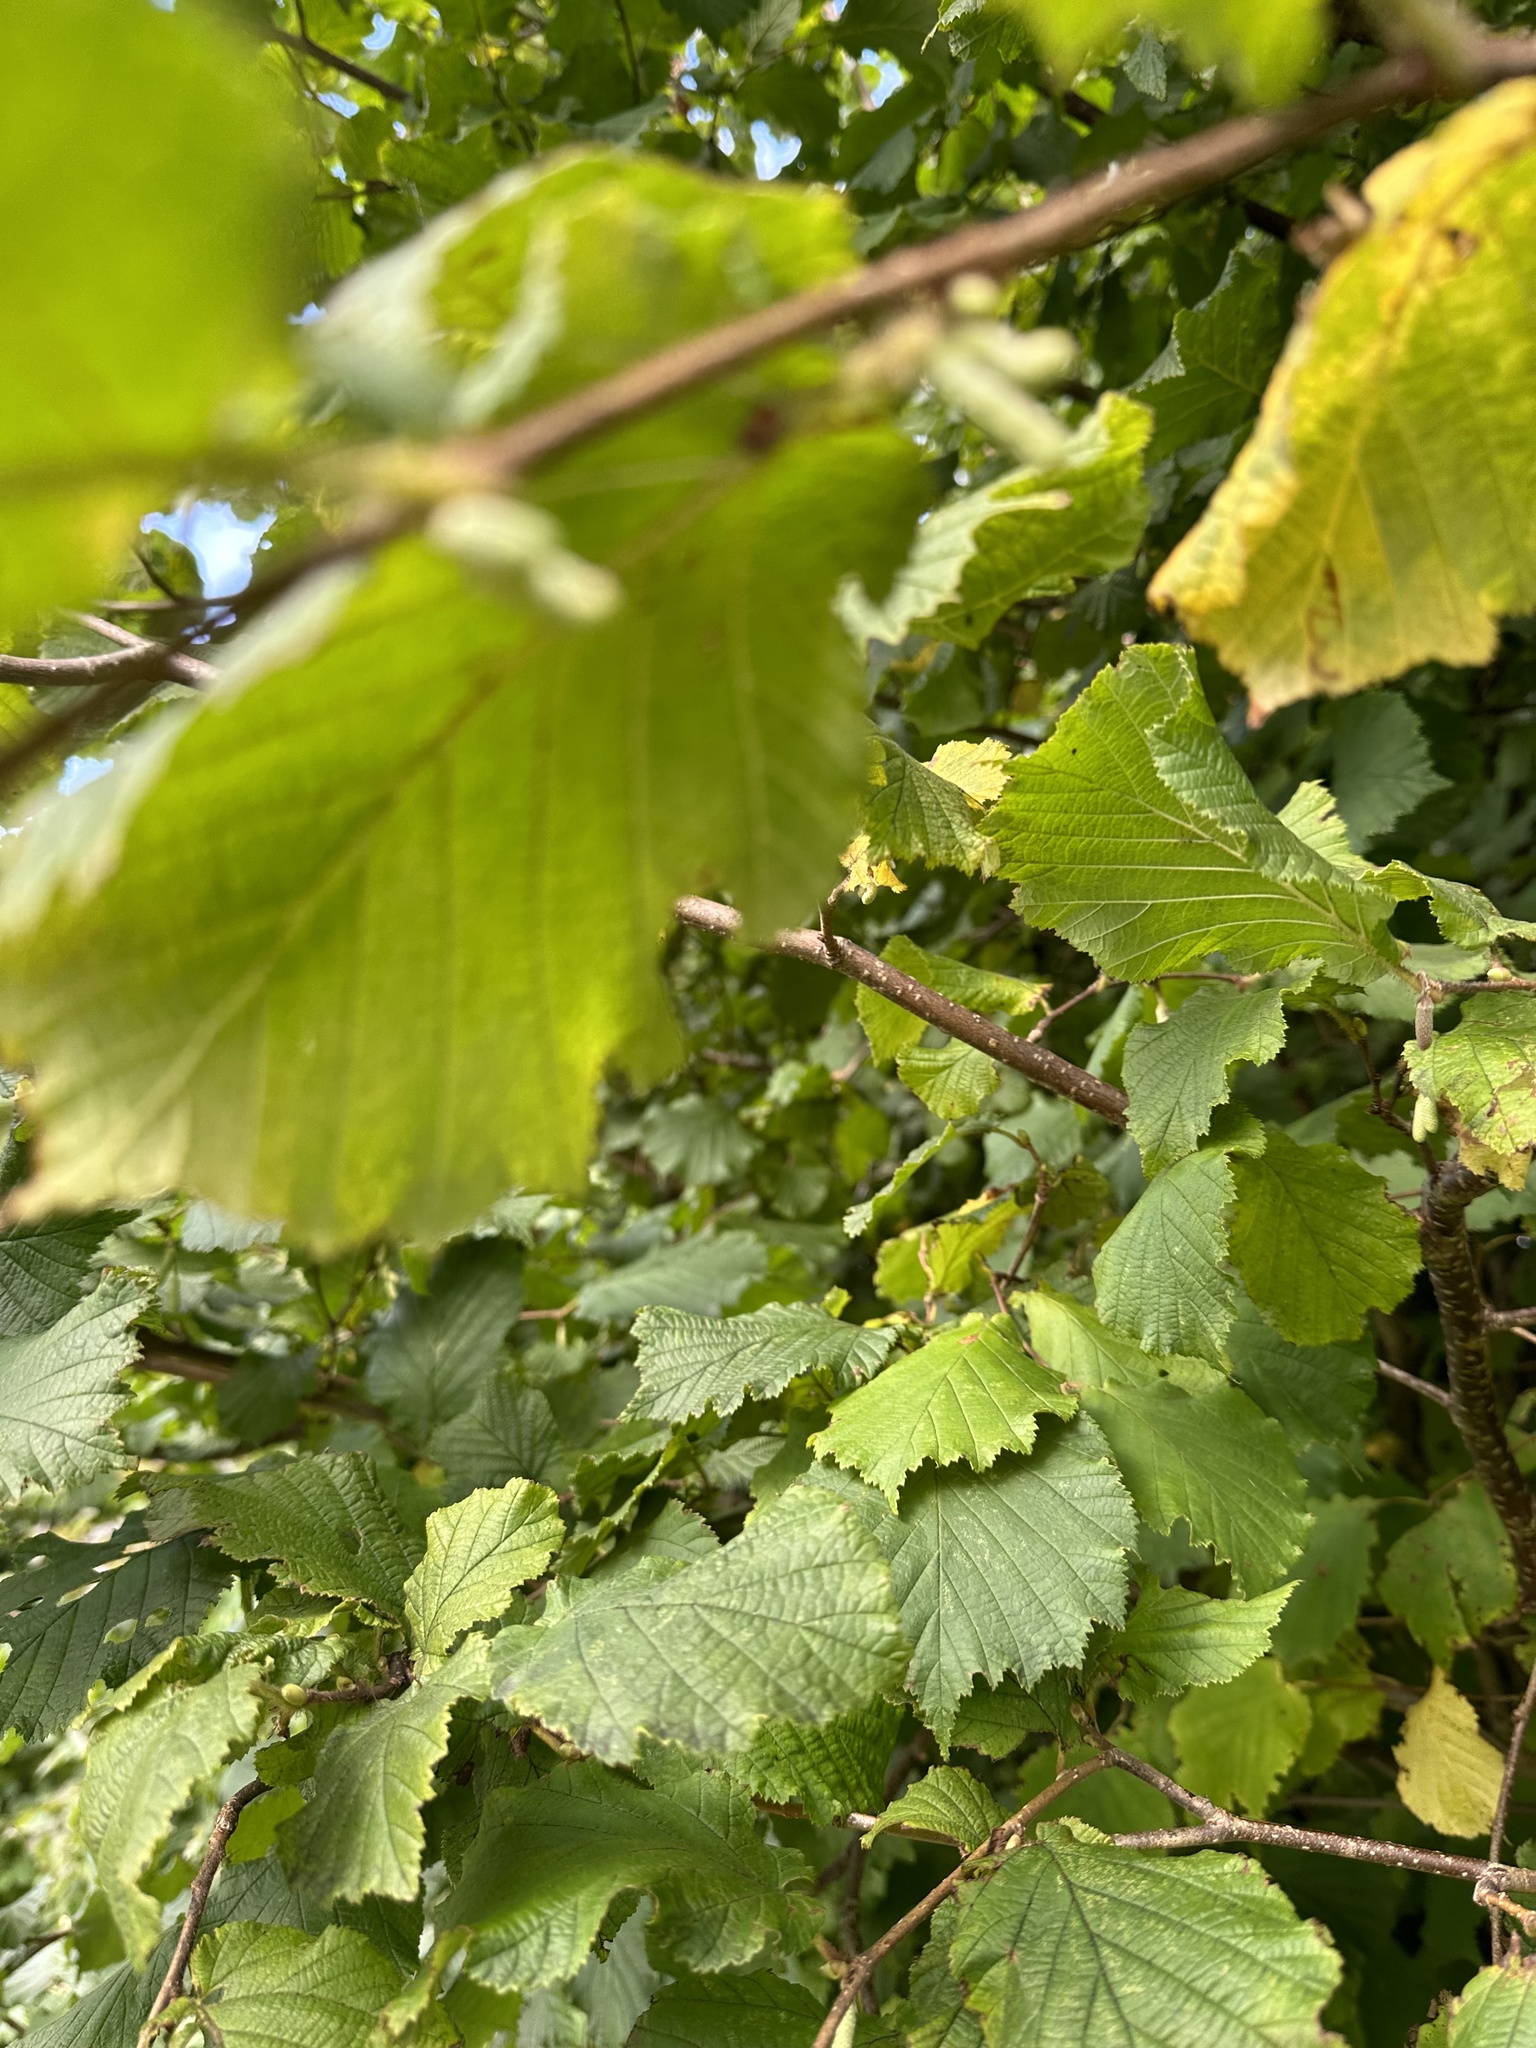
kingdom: Plantae
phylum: Tracheophyta
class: Magnoliopsida
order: Fagales
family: Betulaceae
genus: Corylus
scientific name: Corylus avellana
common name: European hazel
